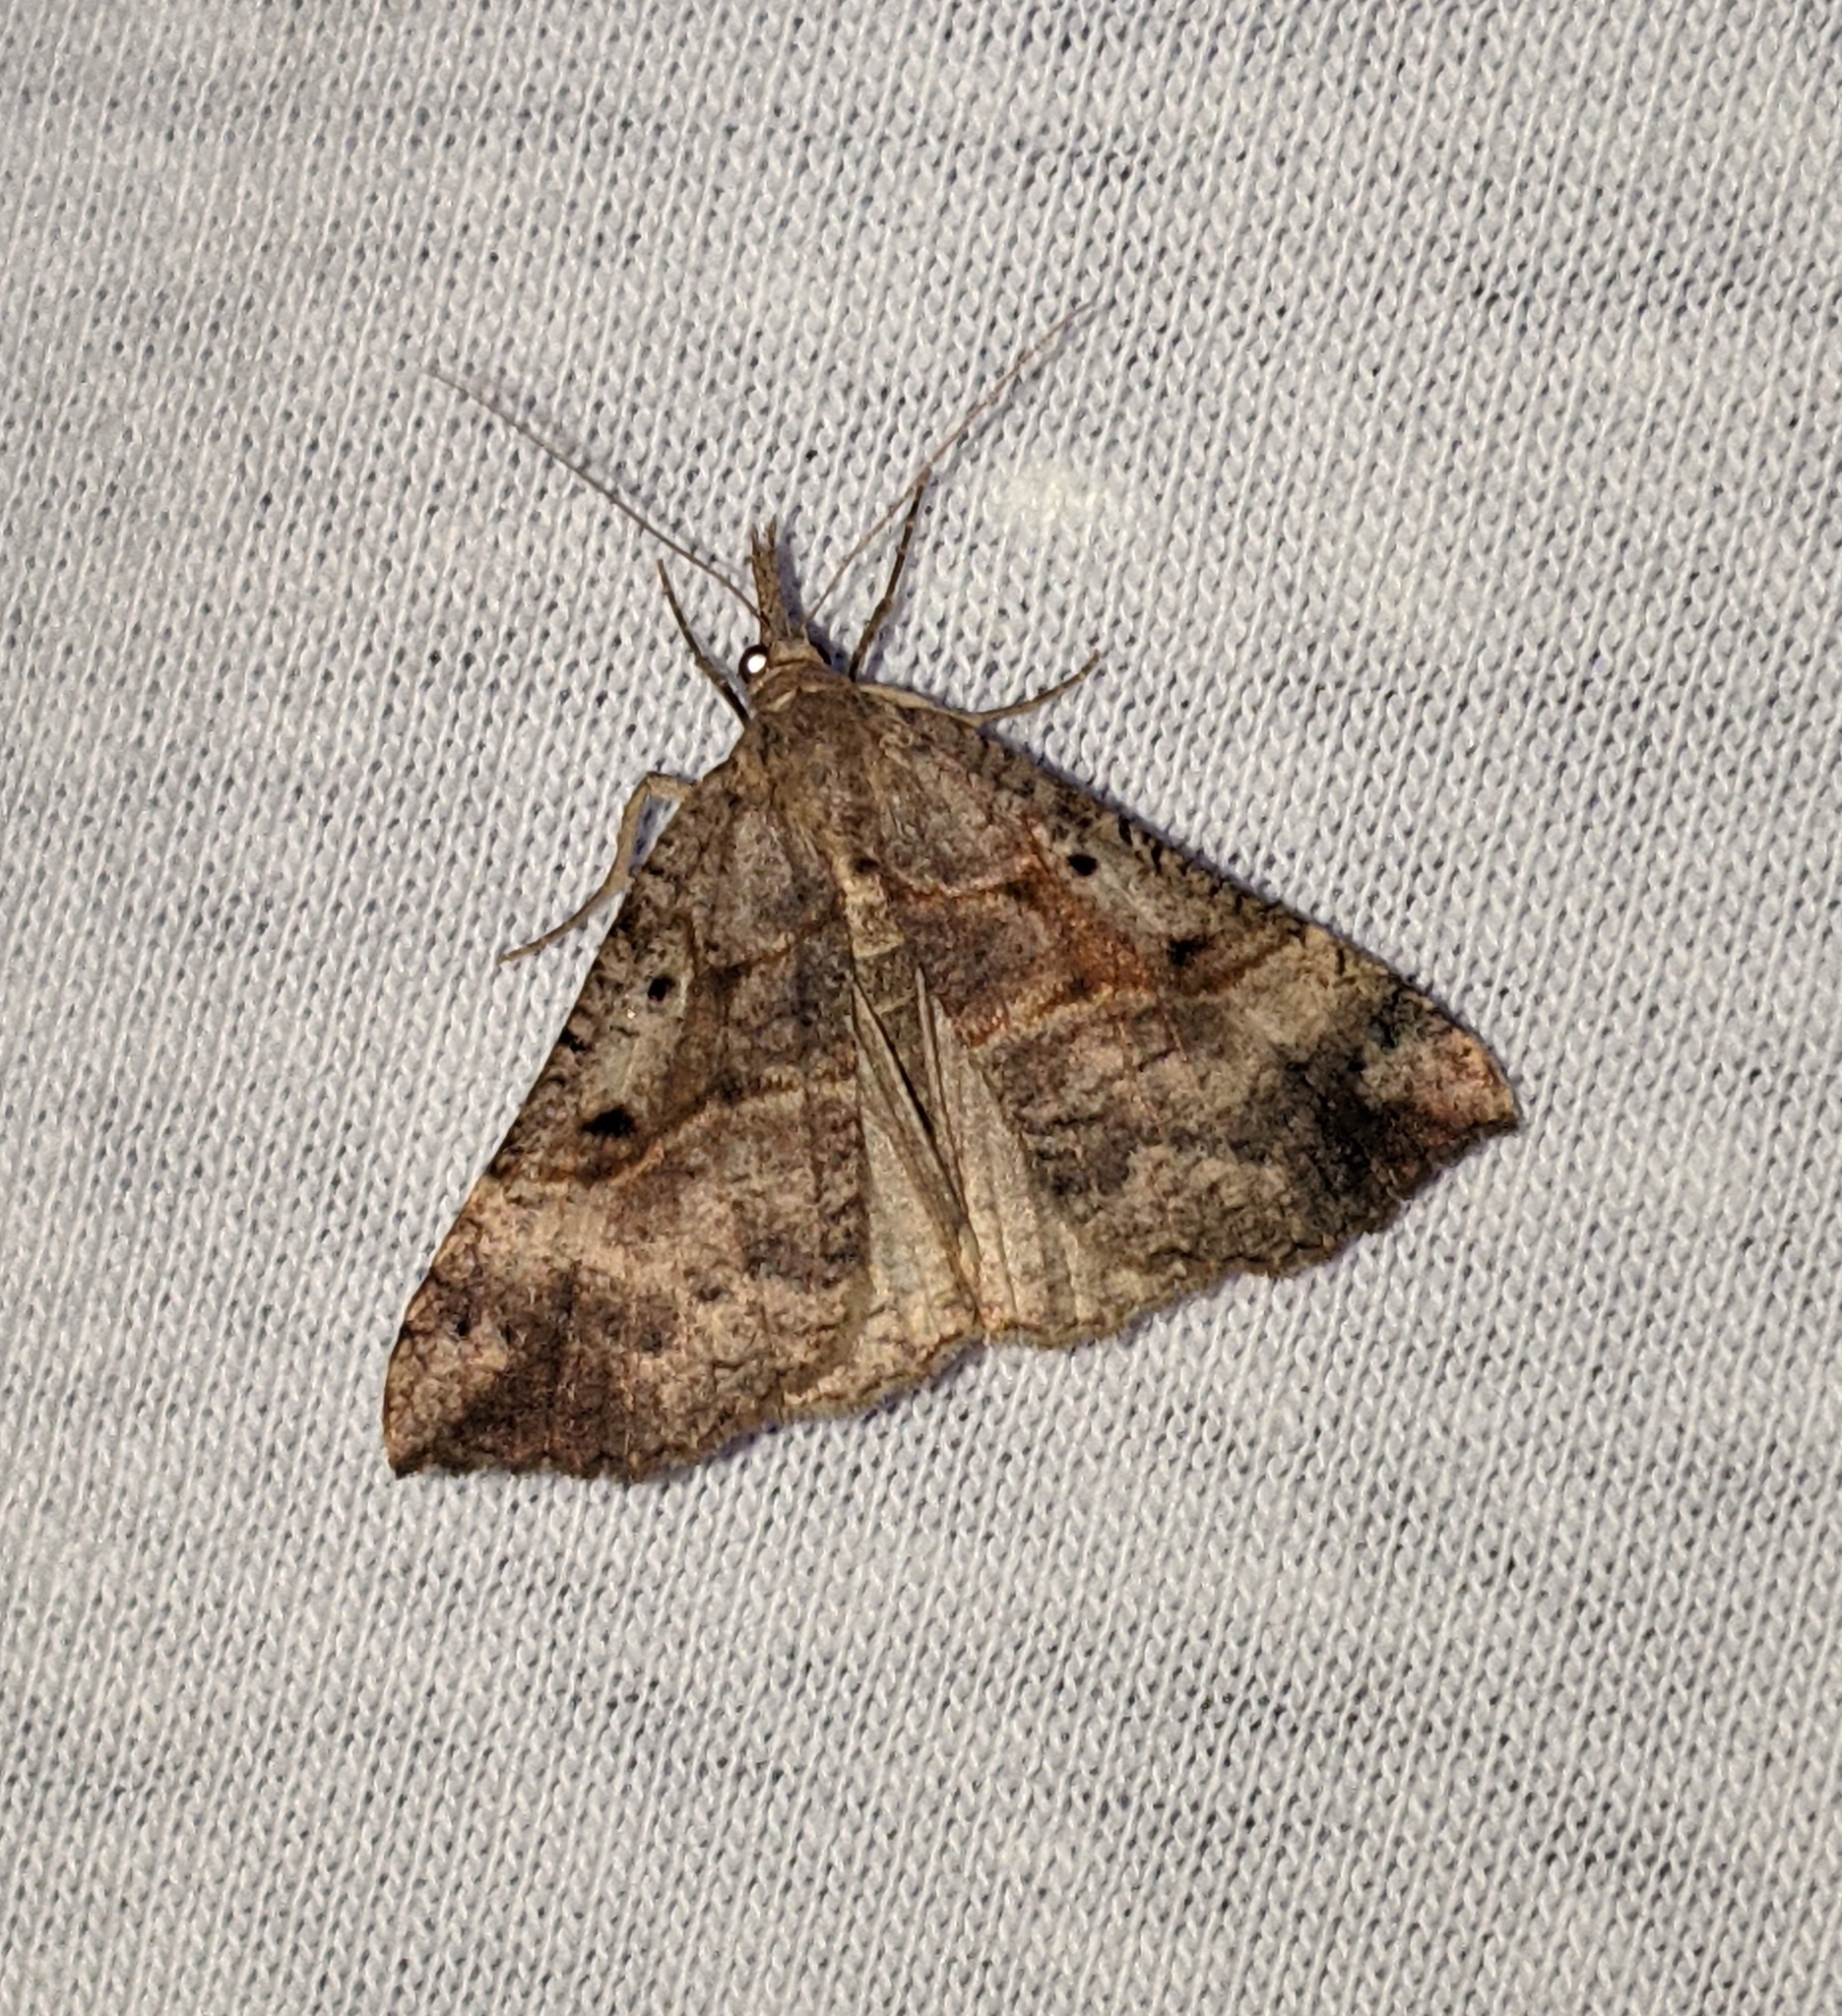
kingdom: Animalia
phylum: Arthropoda
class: Insecta
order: Lepidoptera
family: Erebidae
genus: Hypena
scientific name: Hypena edictalis
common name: Large snout
